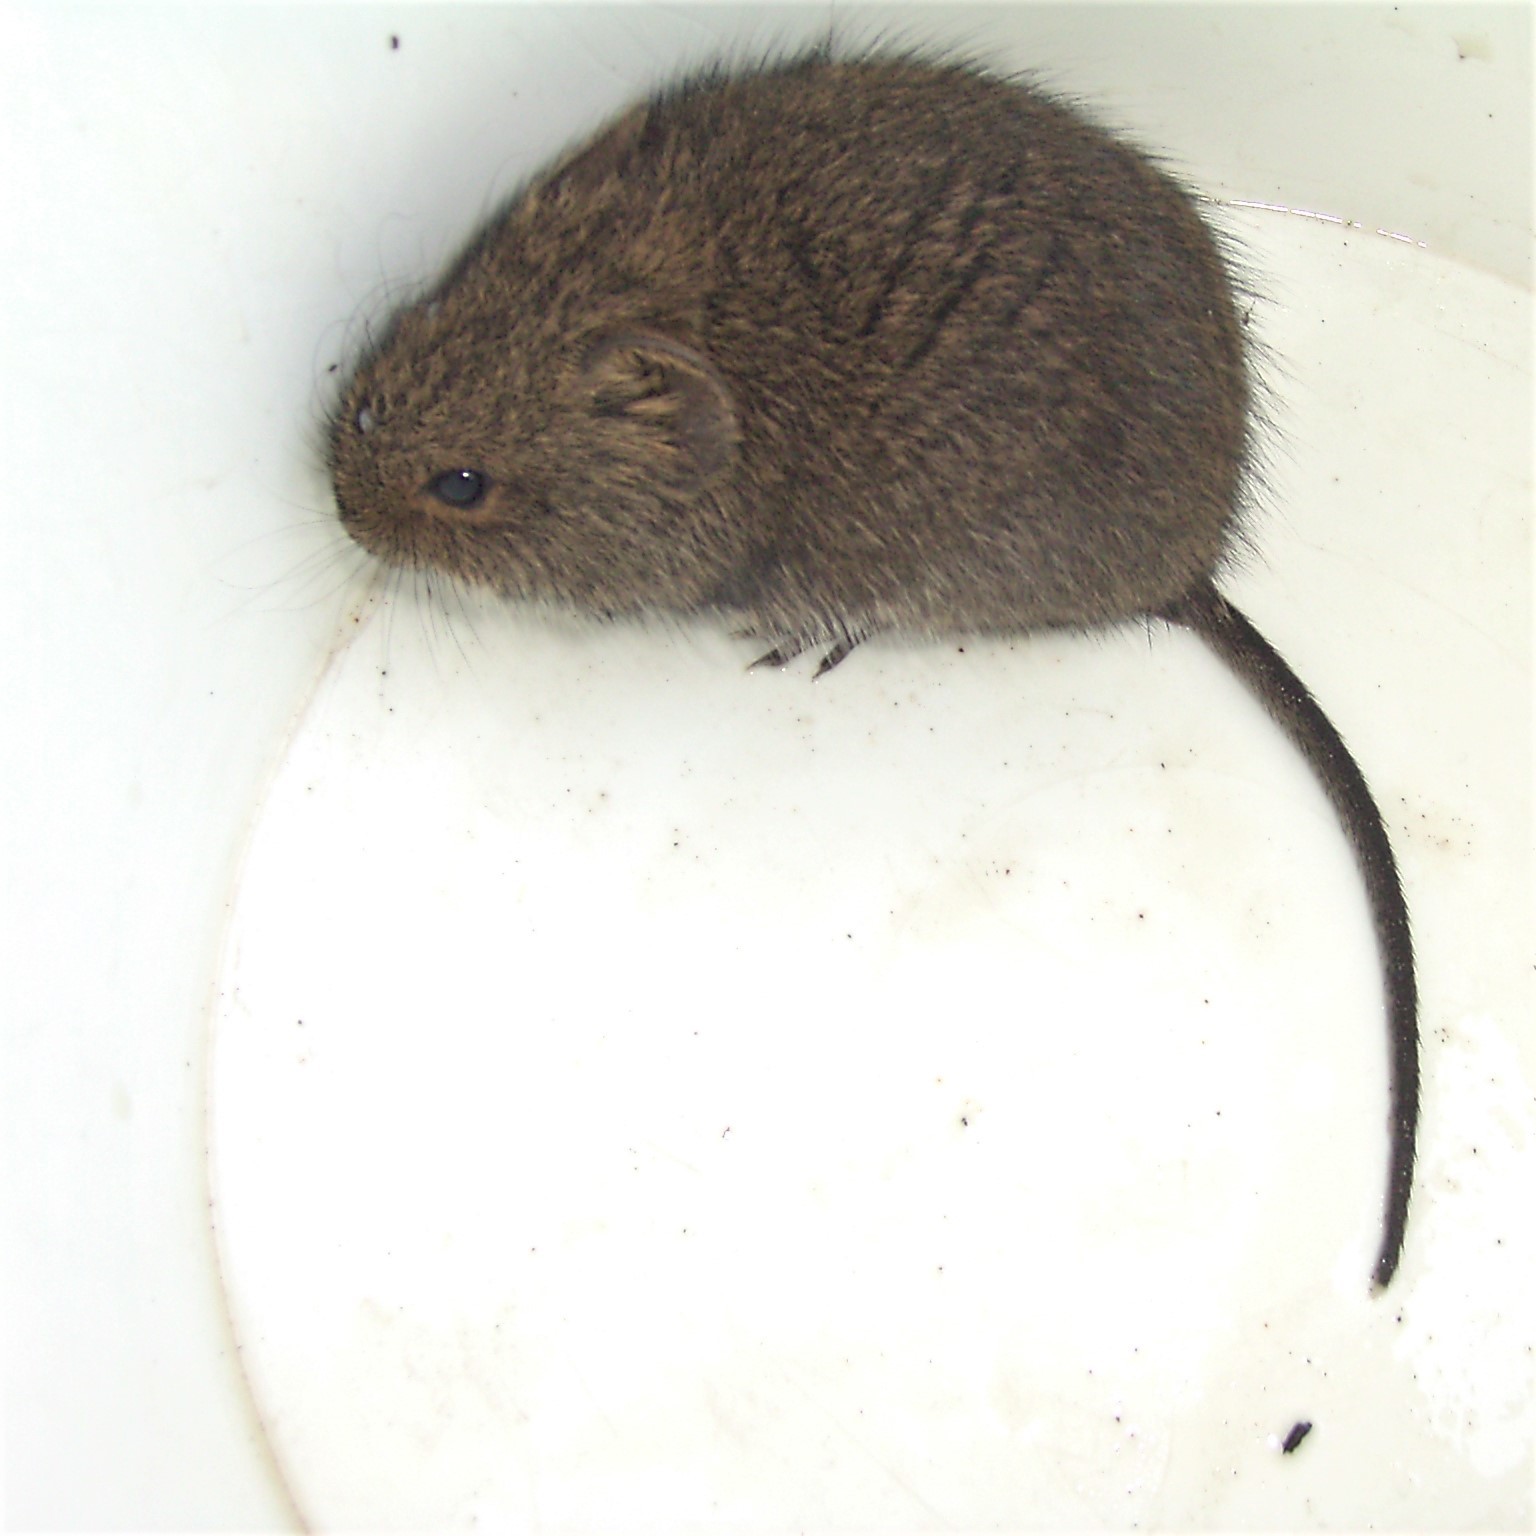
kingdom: Animalia
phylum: Chordata
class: Mammalia
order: Rodentia
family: Muridae
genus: Otomys
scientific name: Otomys irroratus
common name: Southern african vlei rat
